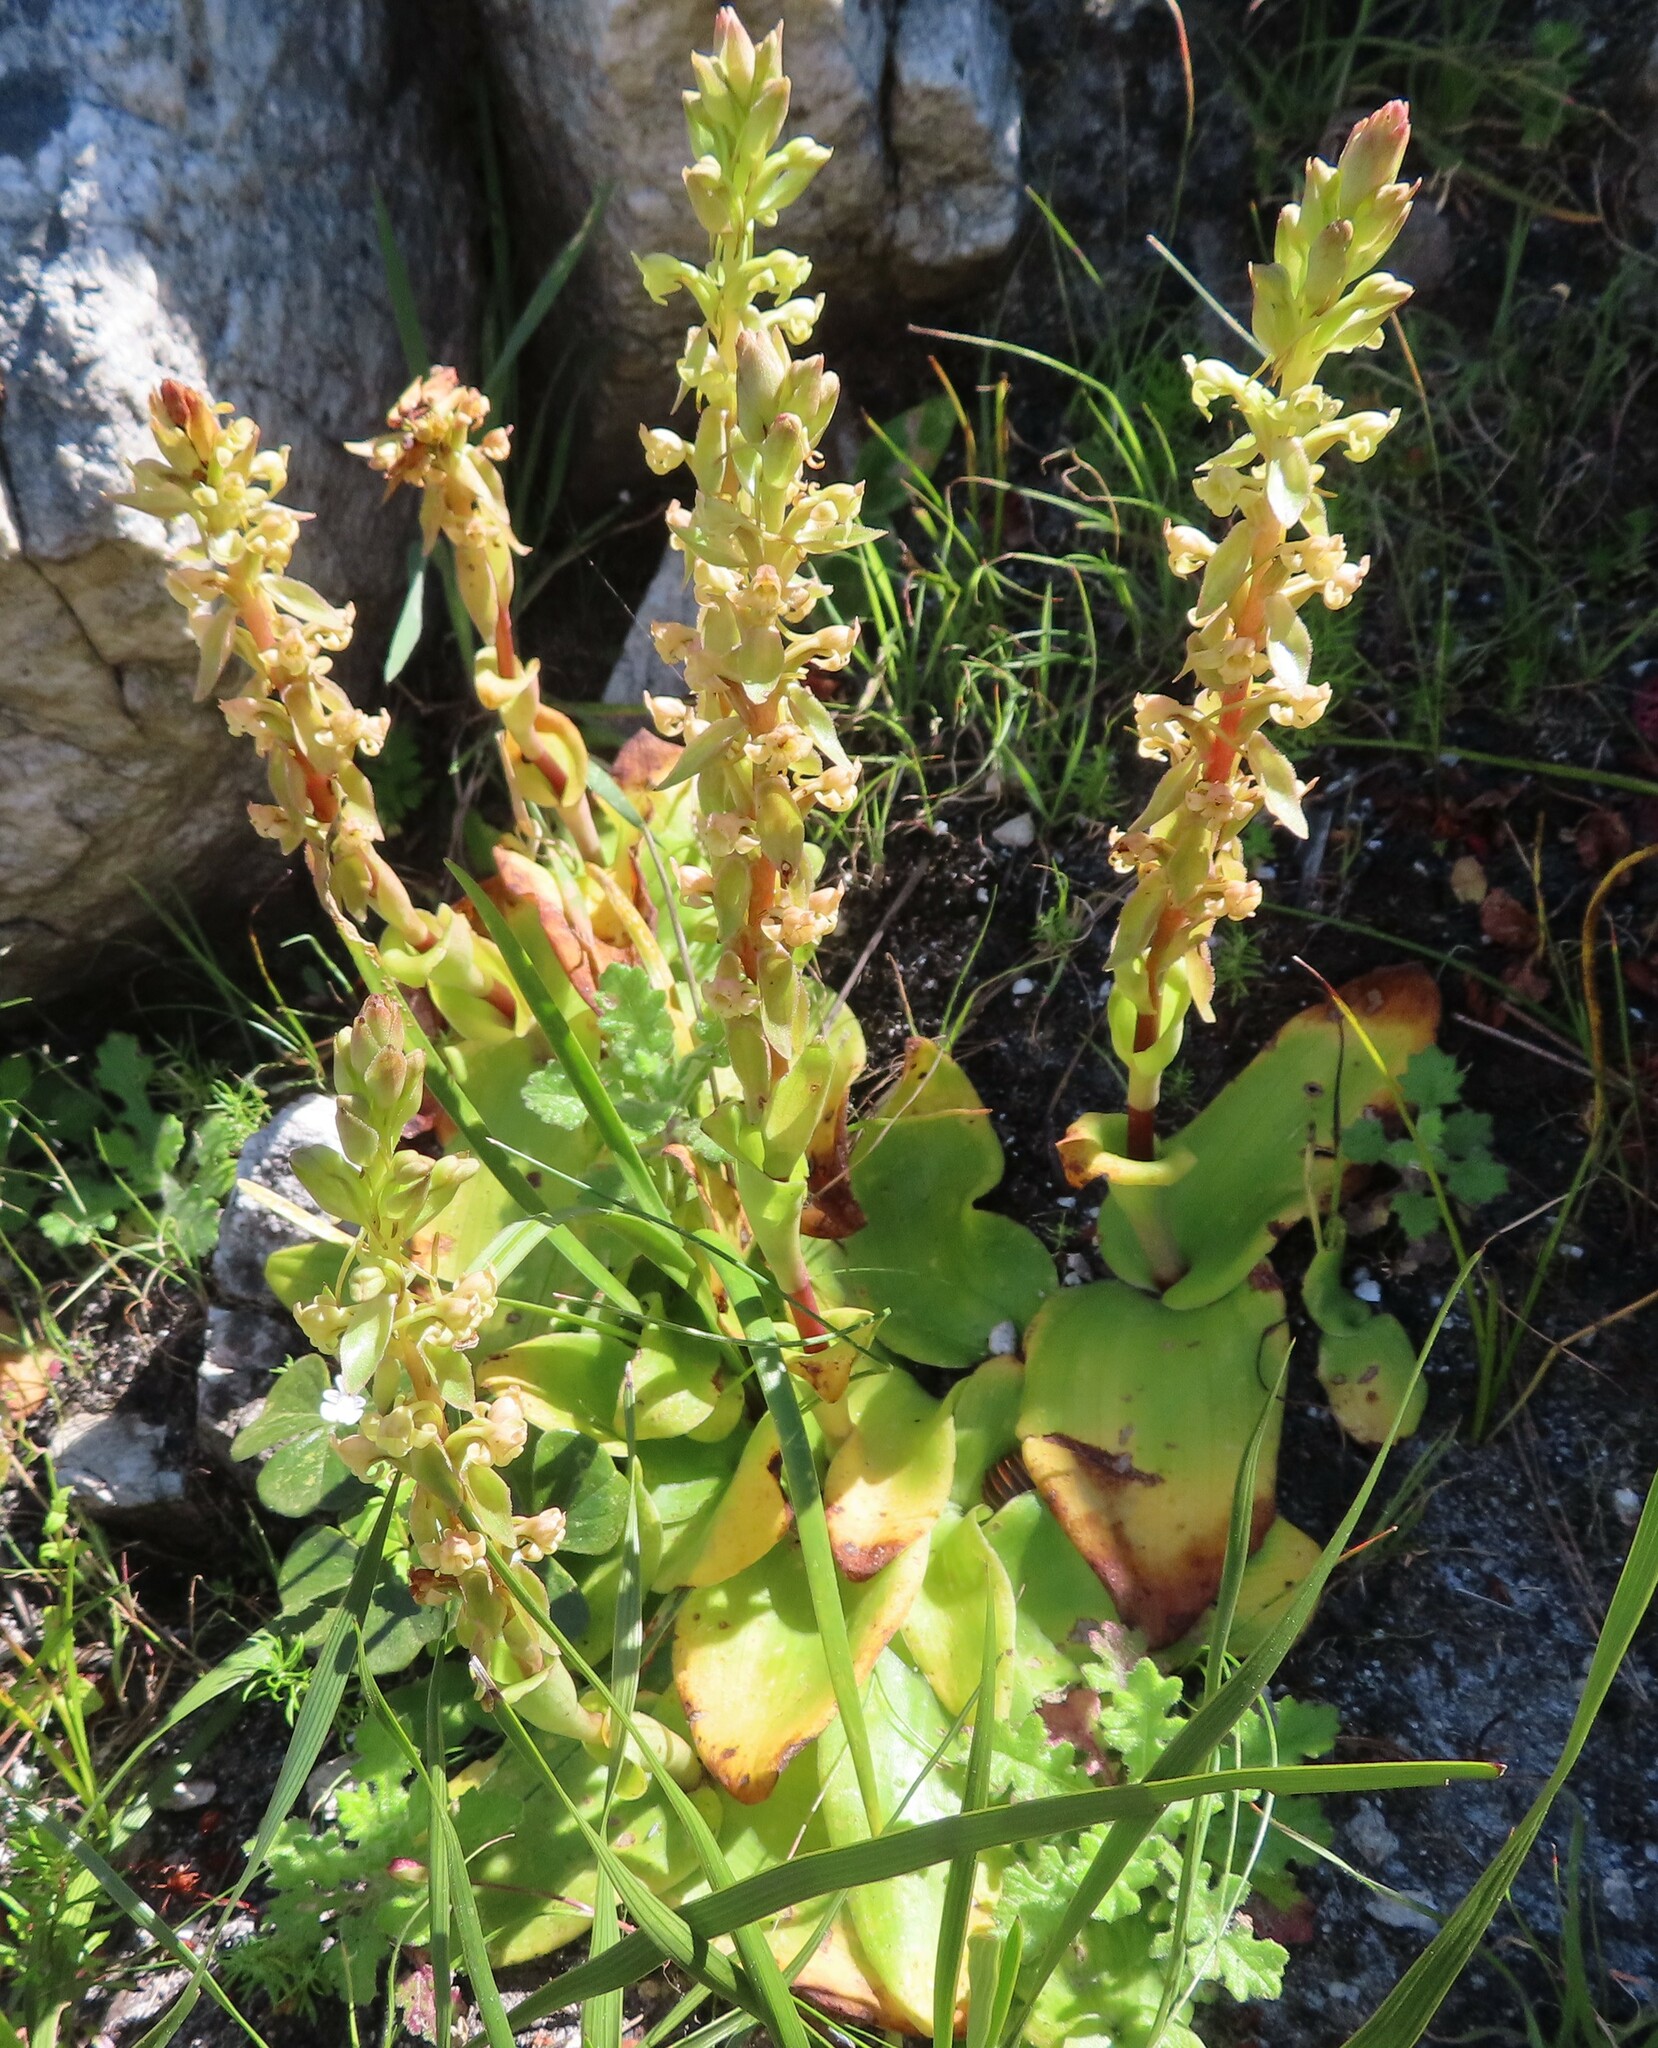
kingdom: Plantae
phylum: Tracheophyta
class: Liliopsida
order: Asparagales
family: Orchidaceae
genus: Satyrium
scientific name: Satyrium humile
